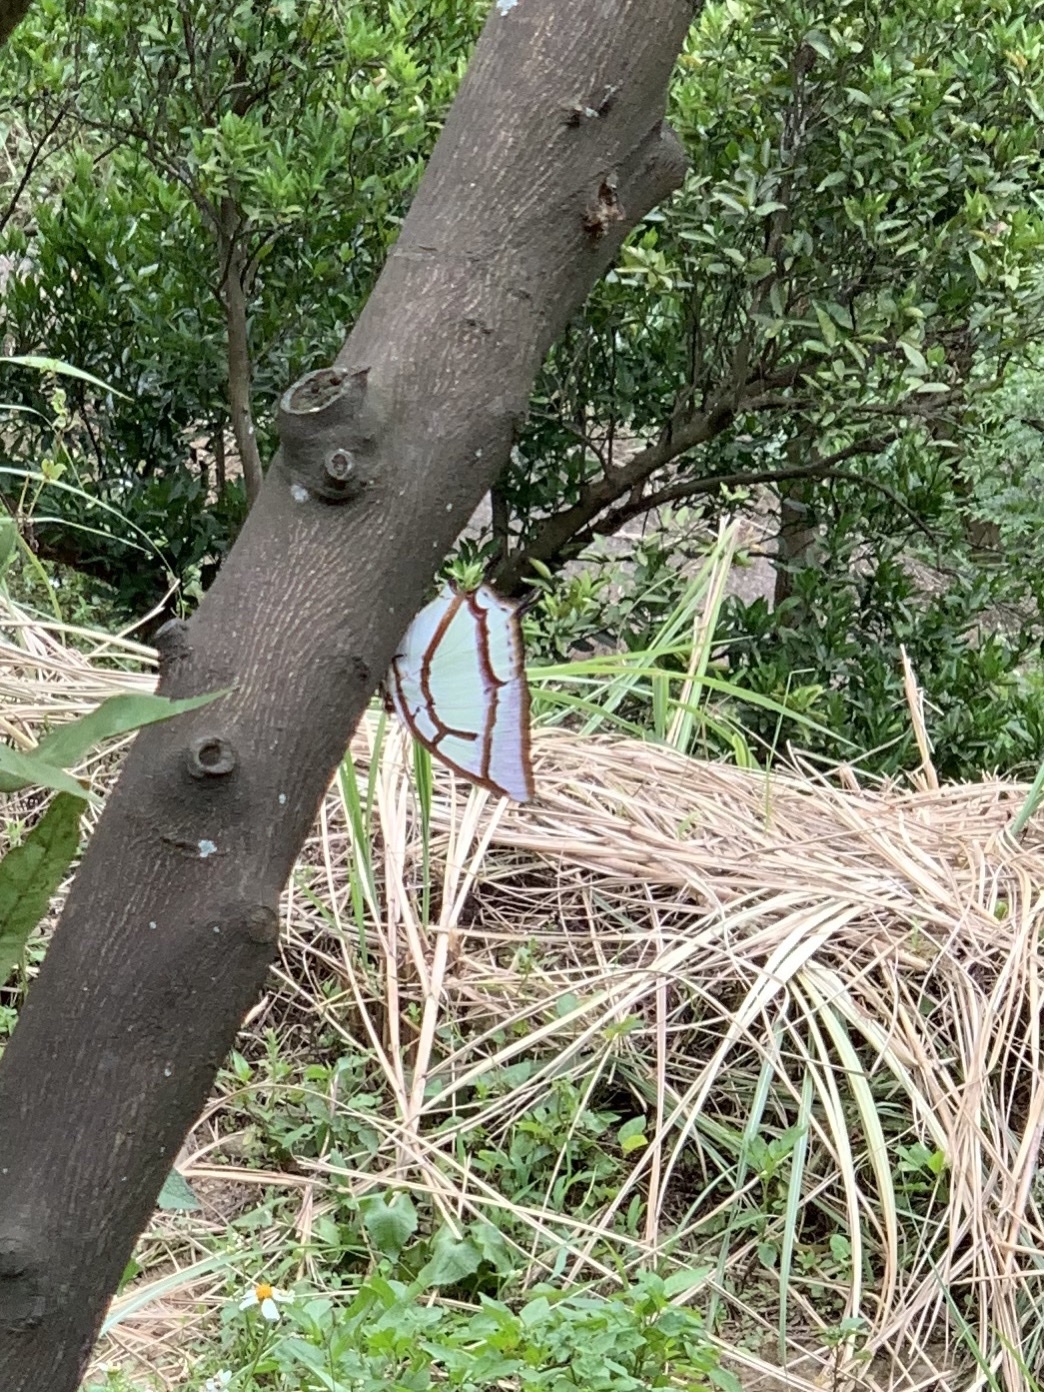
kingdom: Animalia
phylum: Arthropoda
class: Insecta
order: Lepidoptera
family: Nymphalidae
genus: Charaxes
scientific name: Charaxes narcaea
